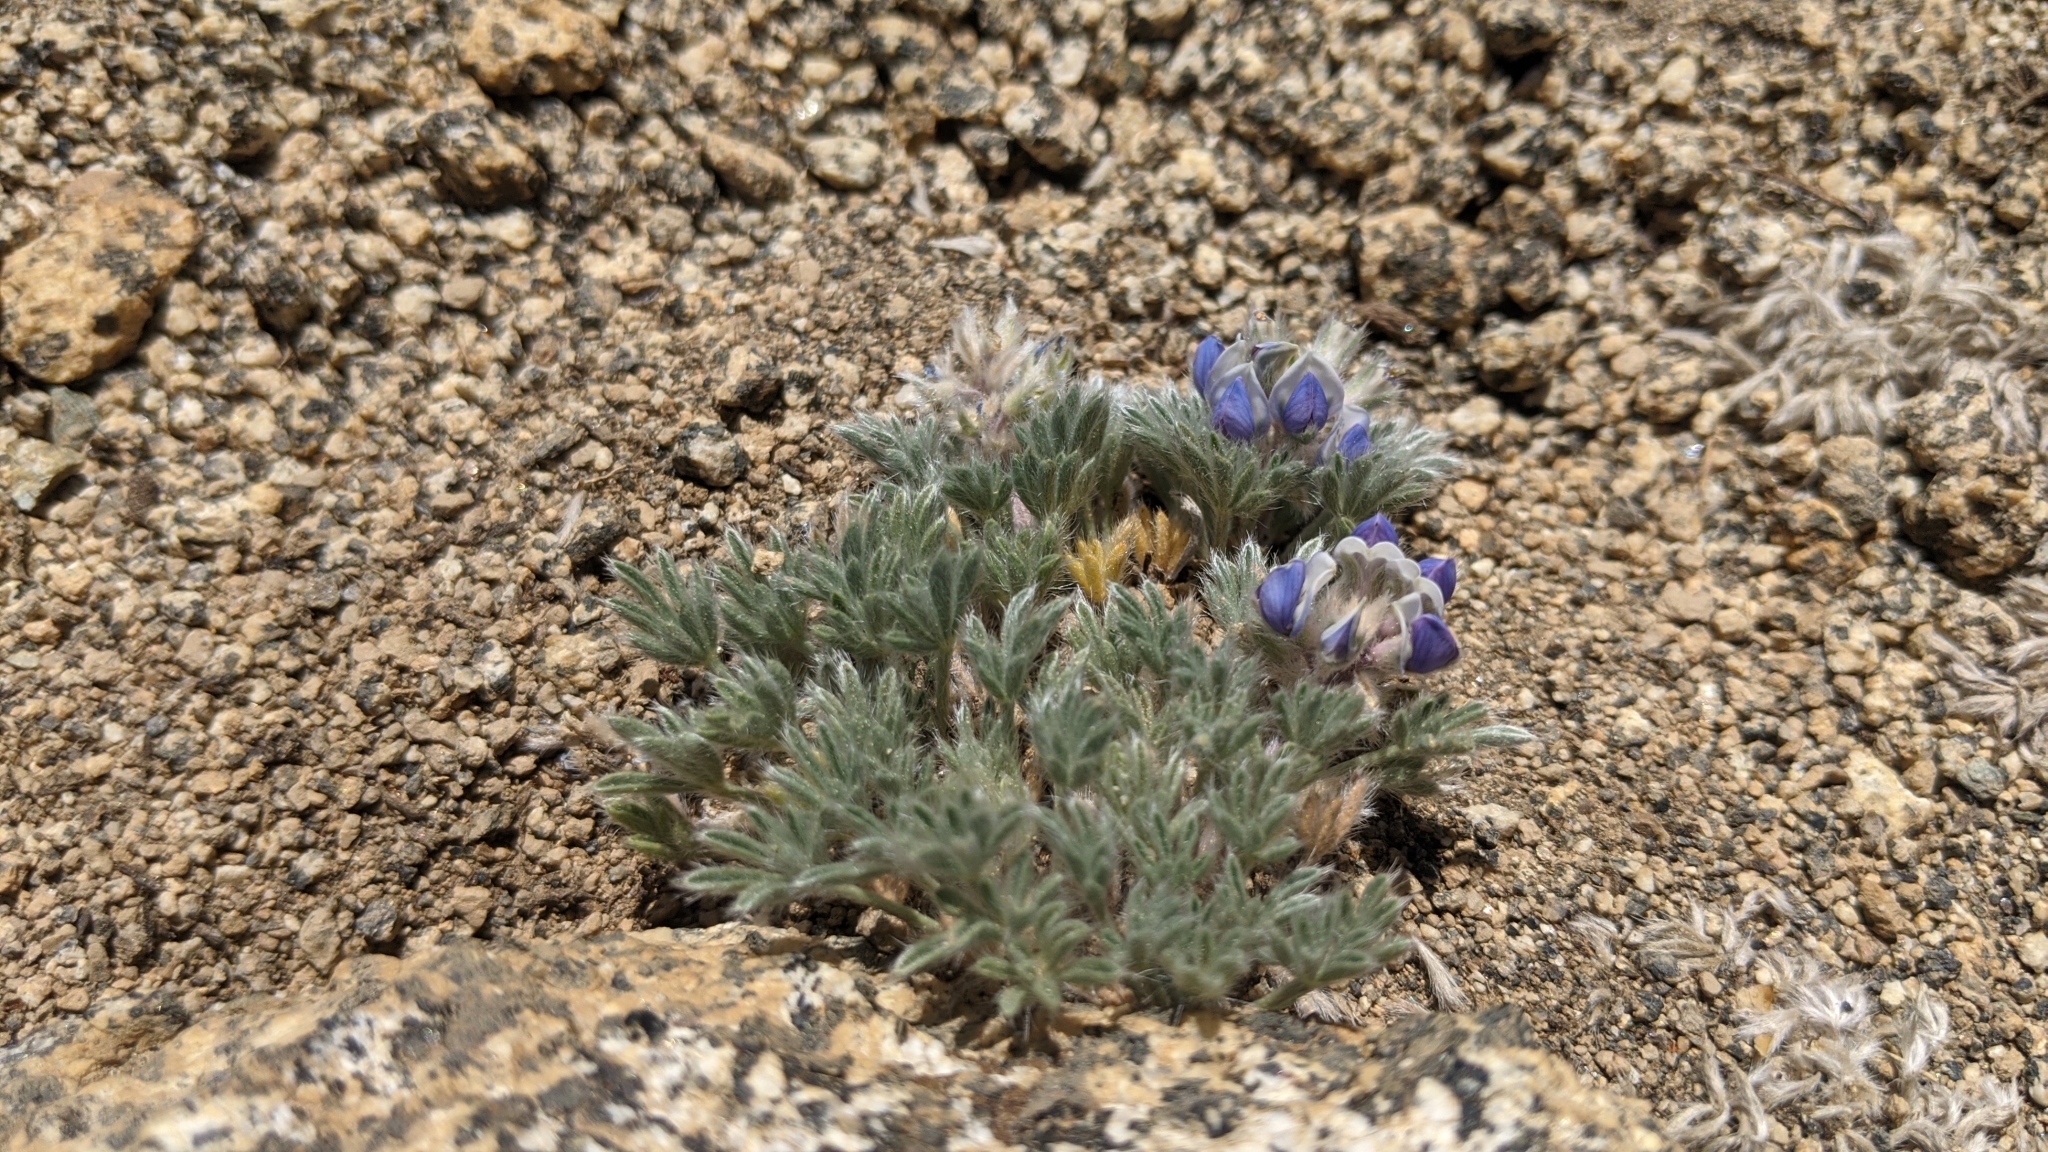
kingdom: Plantae
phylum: Tracheophyta
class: Magnoliopsida
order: Fabales
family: Fabaceae
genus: Lupinus
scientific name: Lupinus breweri
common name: Brewer's lupine
